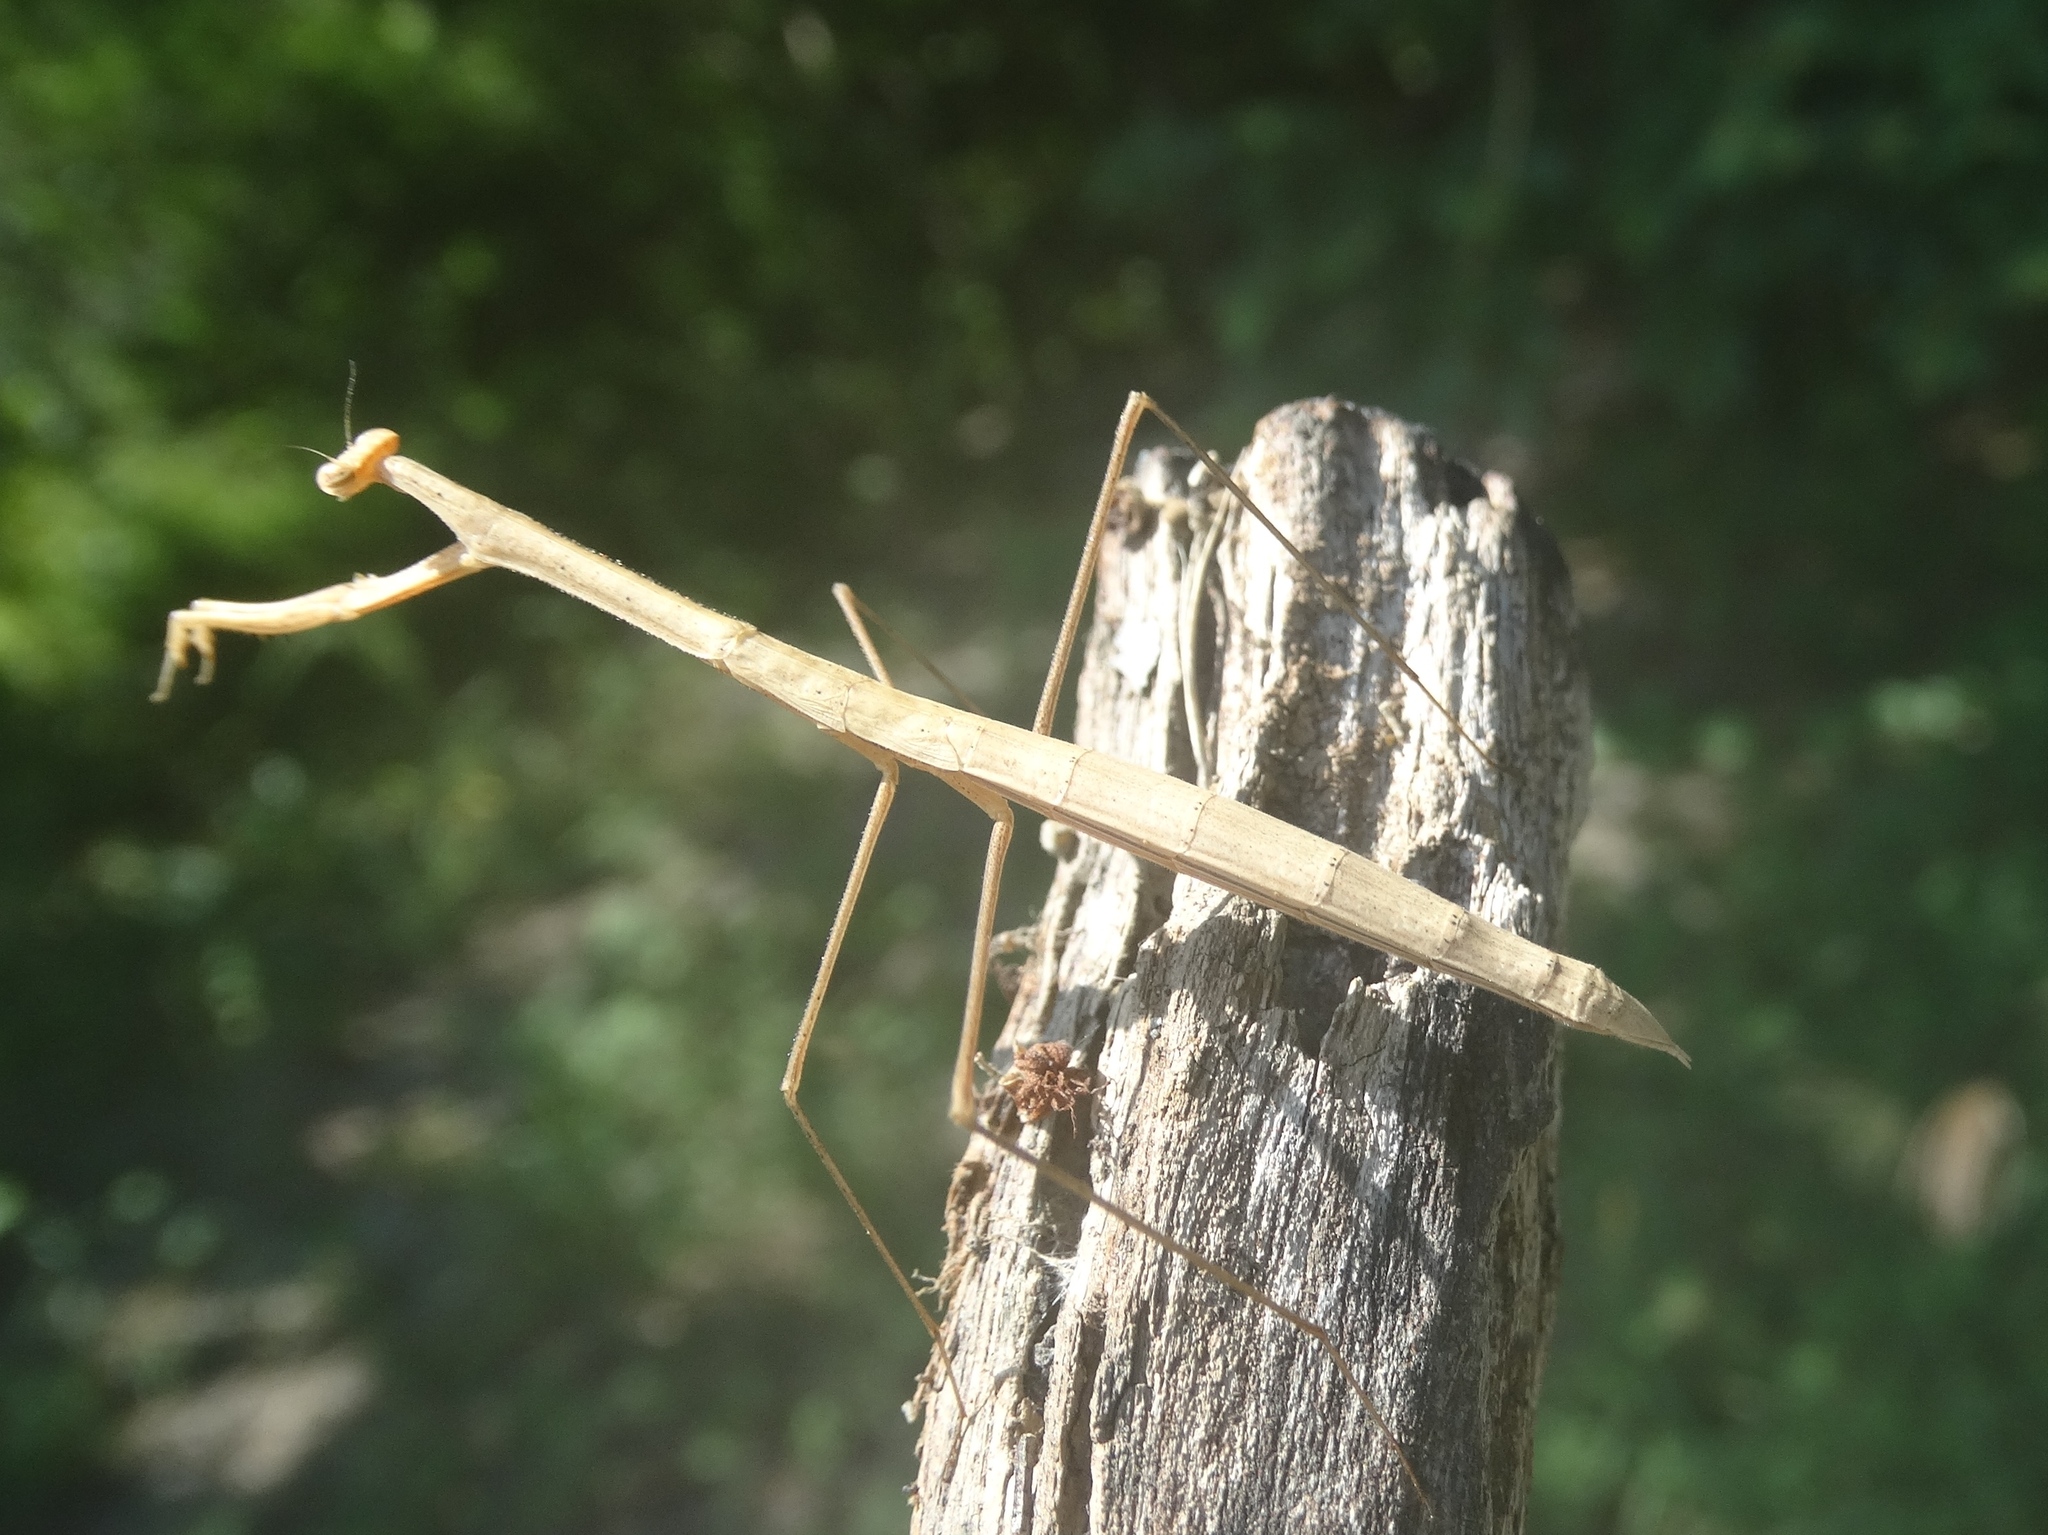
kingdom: Animalia
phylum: Arthropoda
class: Insecta
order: Mantodea
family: Thespidae
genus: Thesprotia
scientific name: Thesprotia
